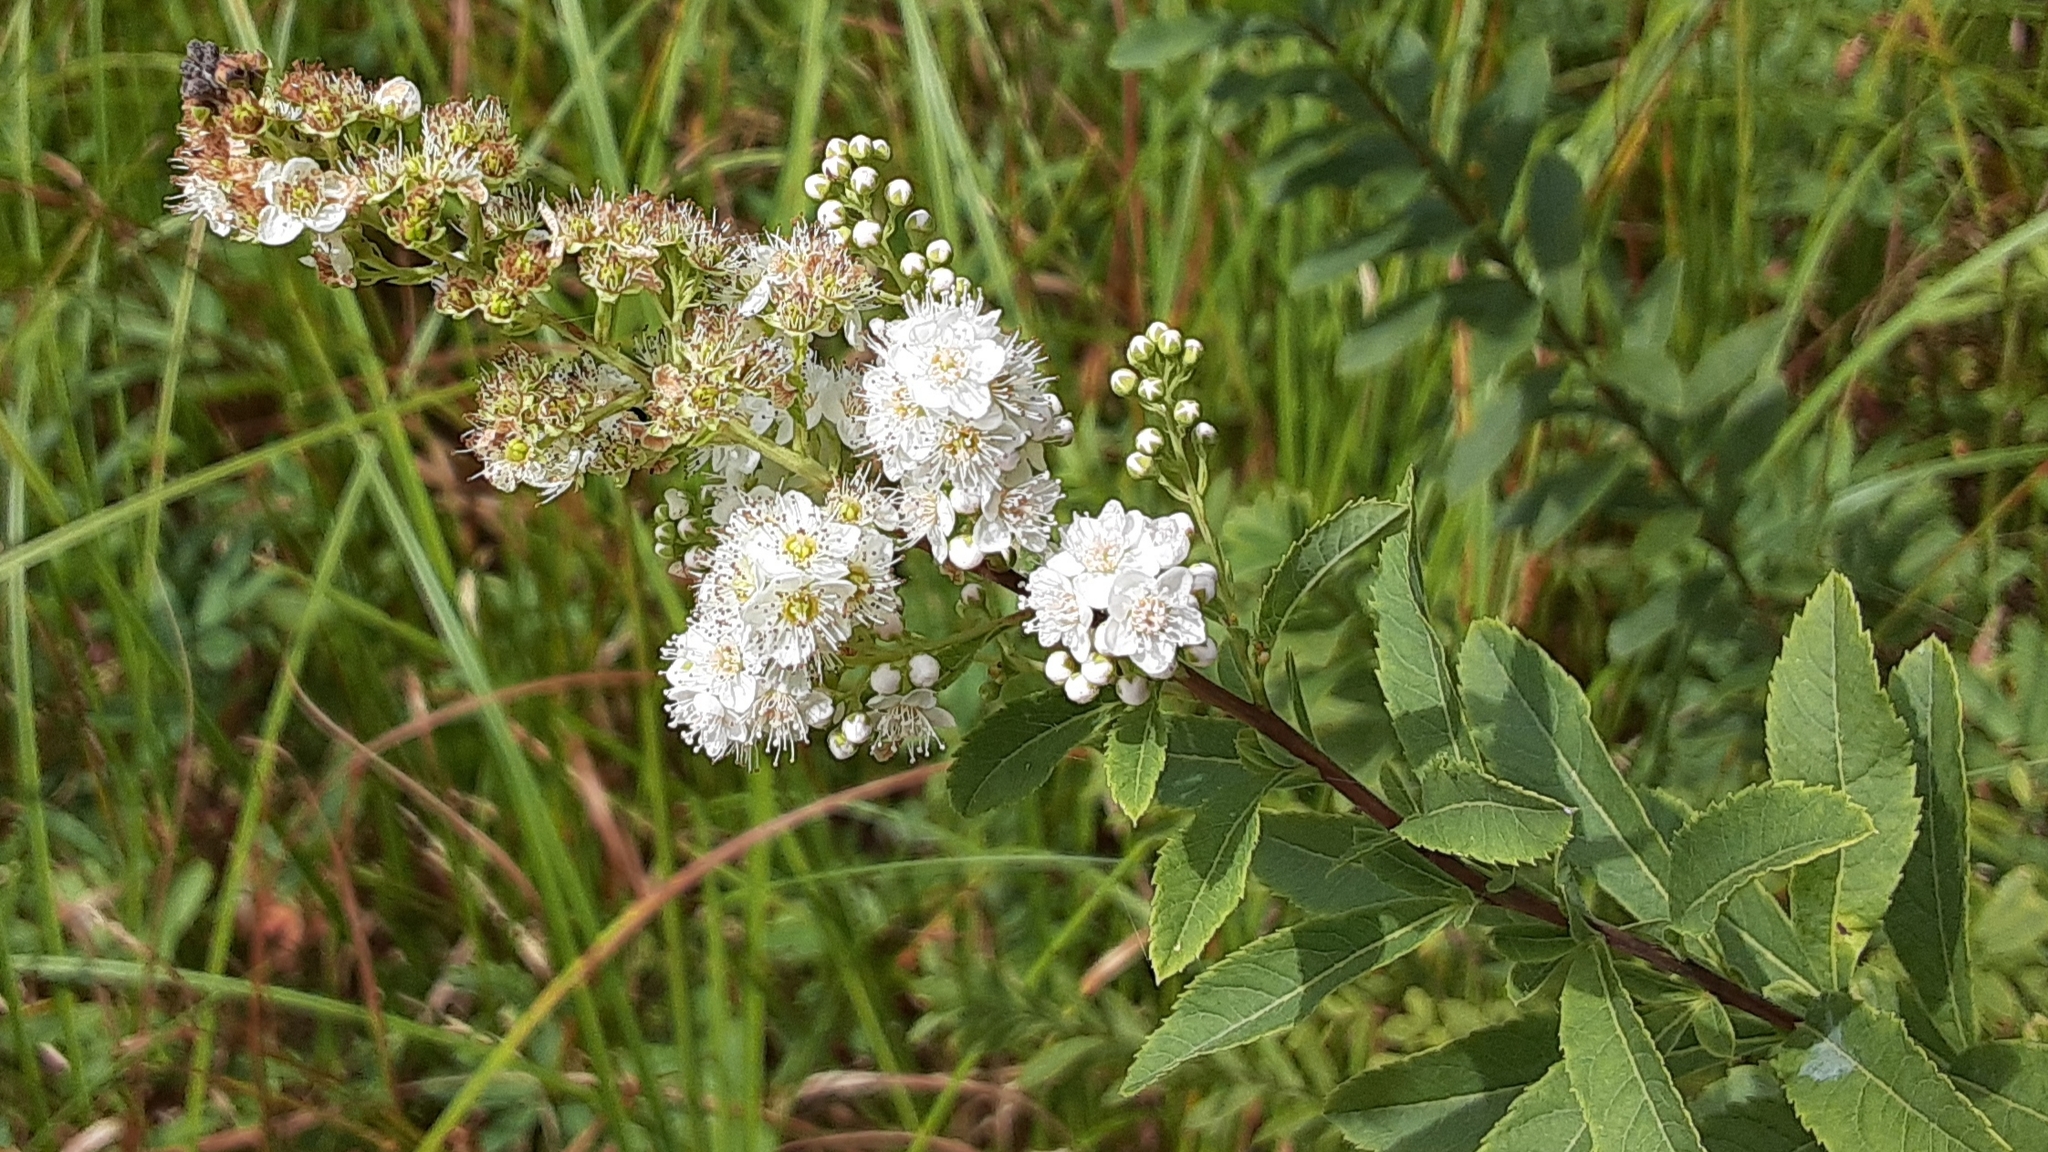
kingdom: Plantae
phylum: Tracheophyta
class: Magnoliopsida
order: Rosales
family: Rosaceae
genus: Spiraea
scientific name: Spiraea alba
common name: Pale bridewort
